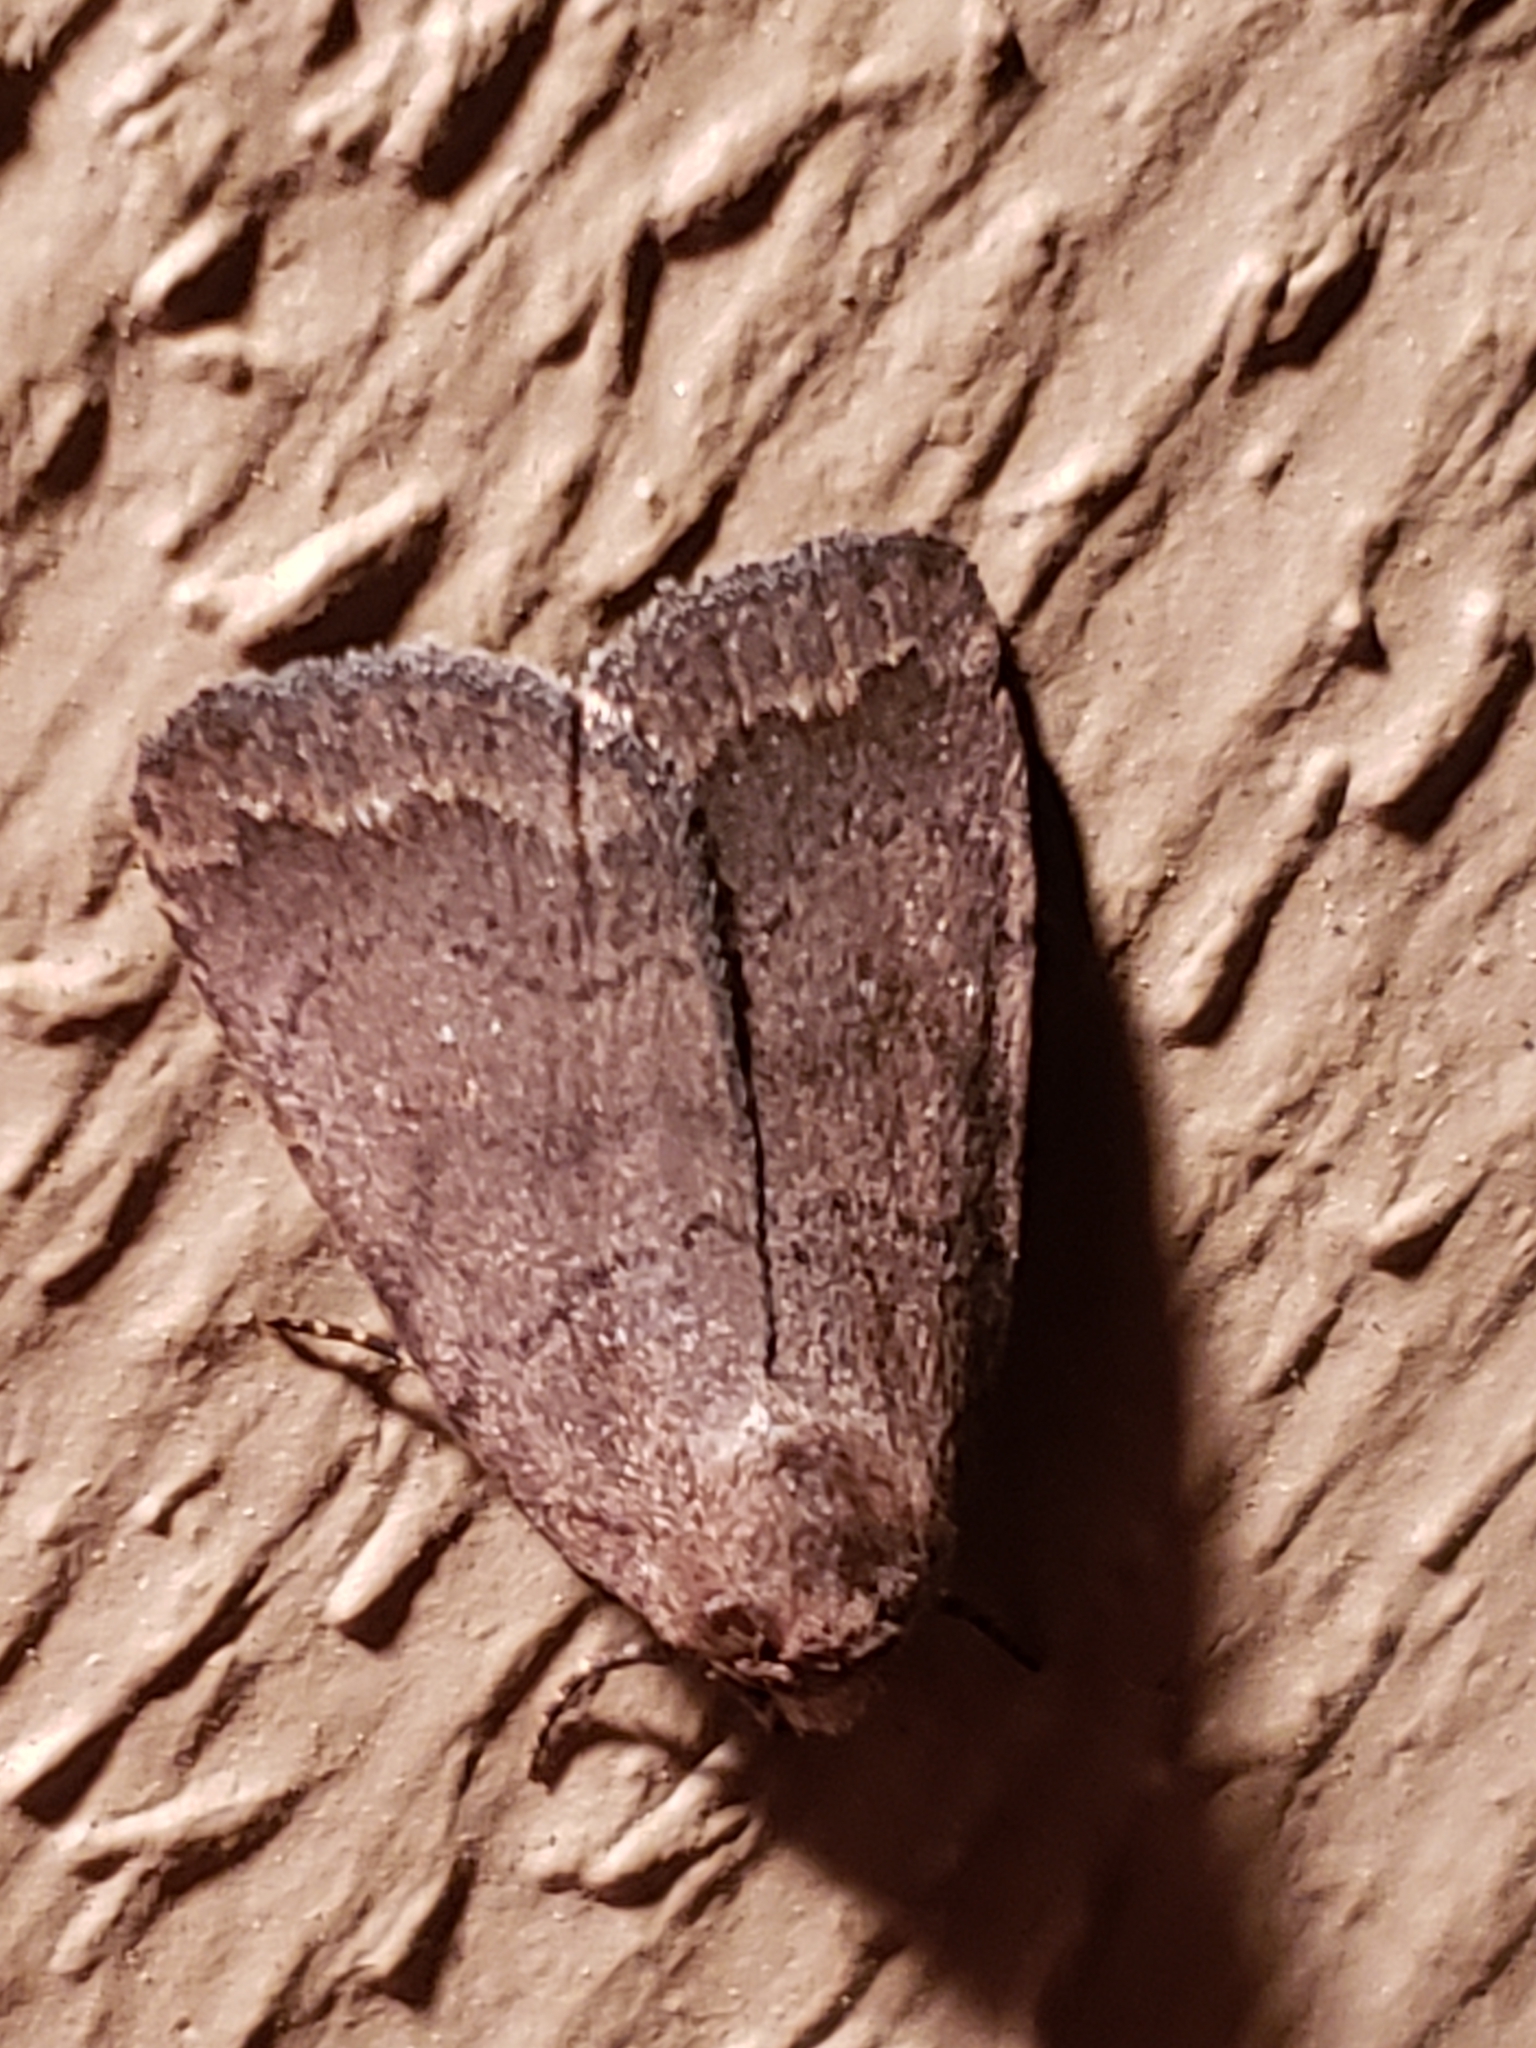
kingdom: Animalia
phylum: Arthropoda
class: Insecta
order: Lepidoptera
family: Noctuidae
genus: Athetis
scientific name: Athetis tarda
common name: Slowpoke moth
